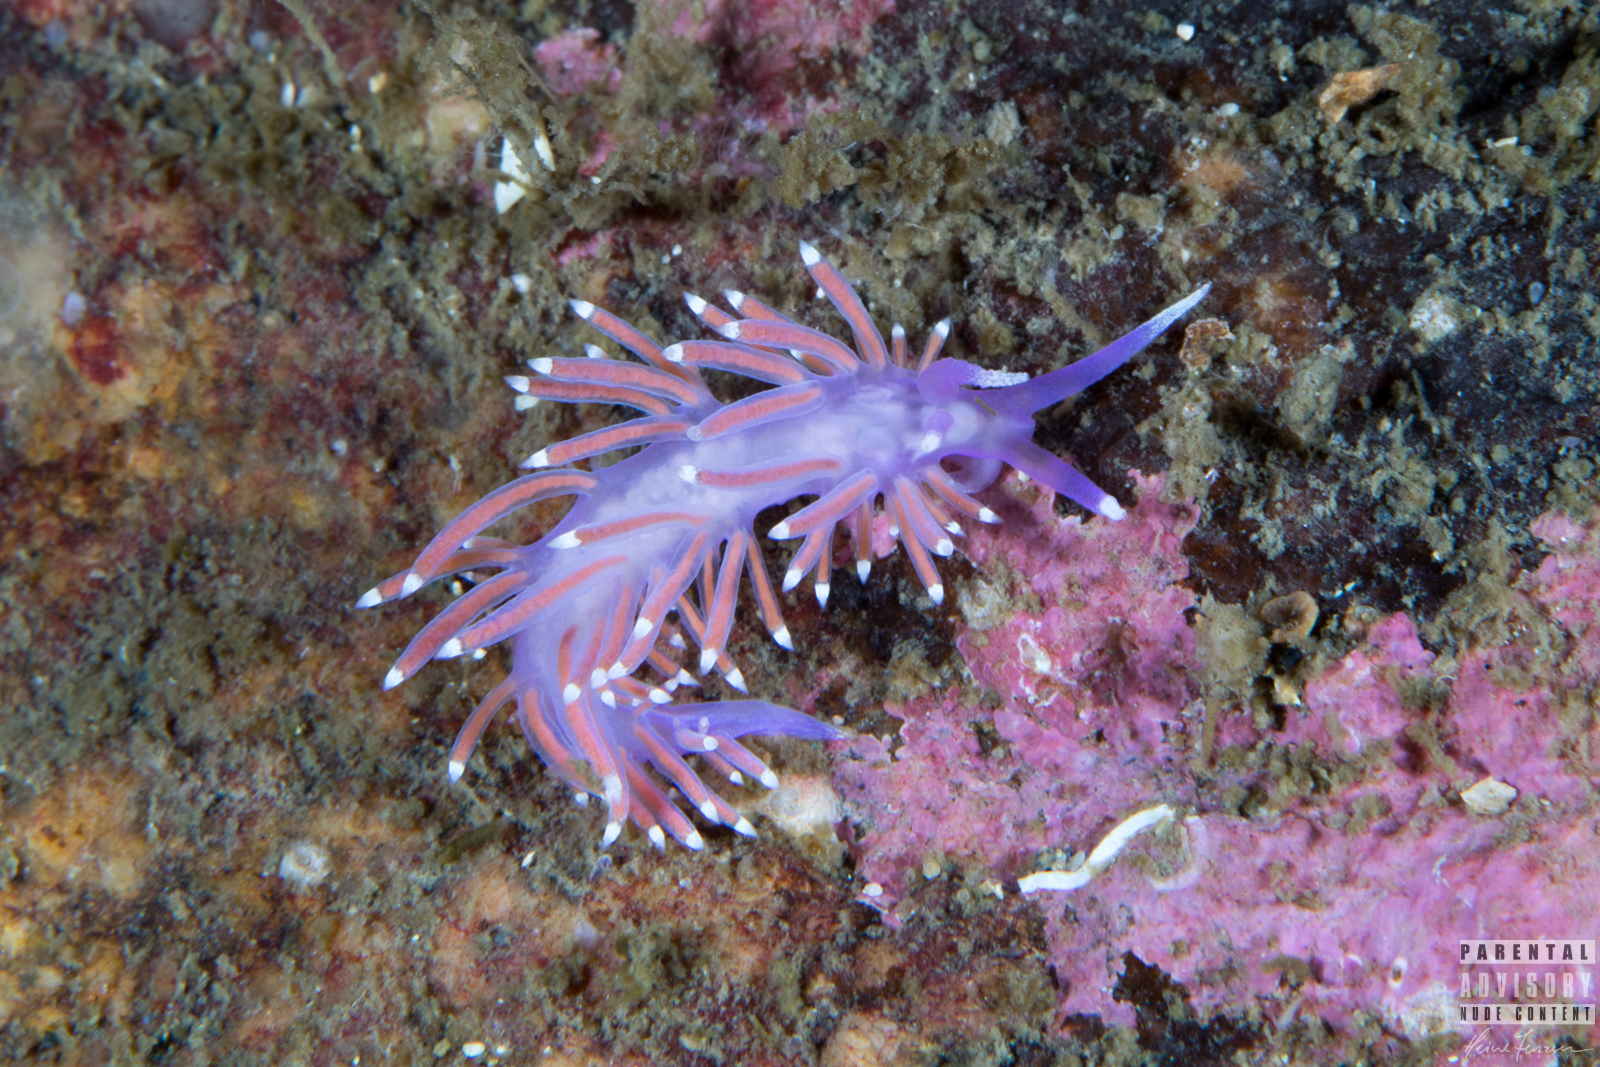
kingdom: Animalia
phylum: Mollusca
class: Gastropoda
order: Nudibranchia
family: Flabellinidae
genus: Edmundsella
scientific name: Edmundsella pedata
